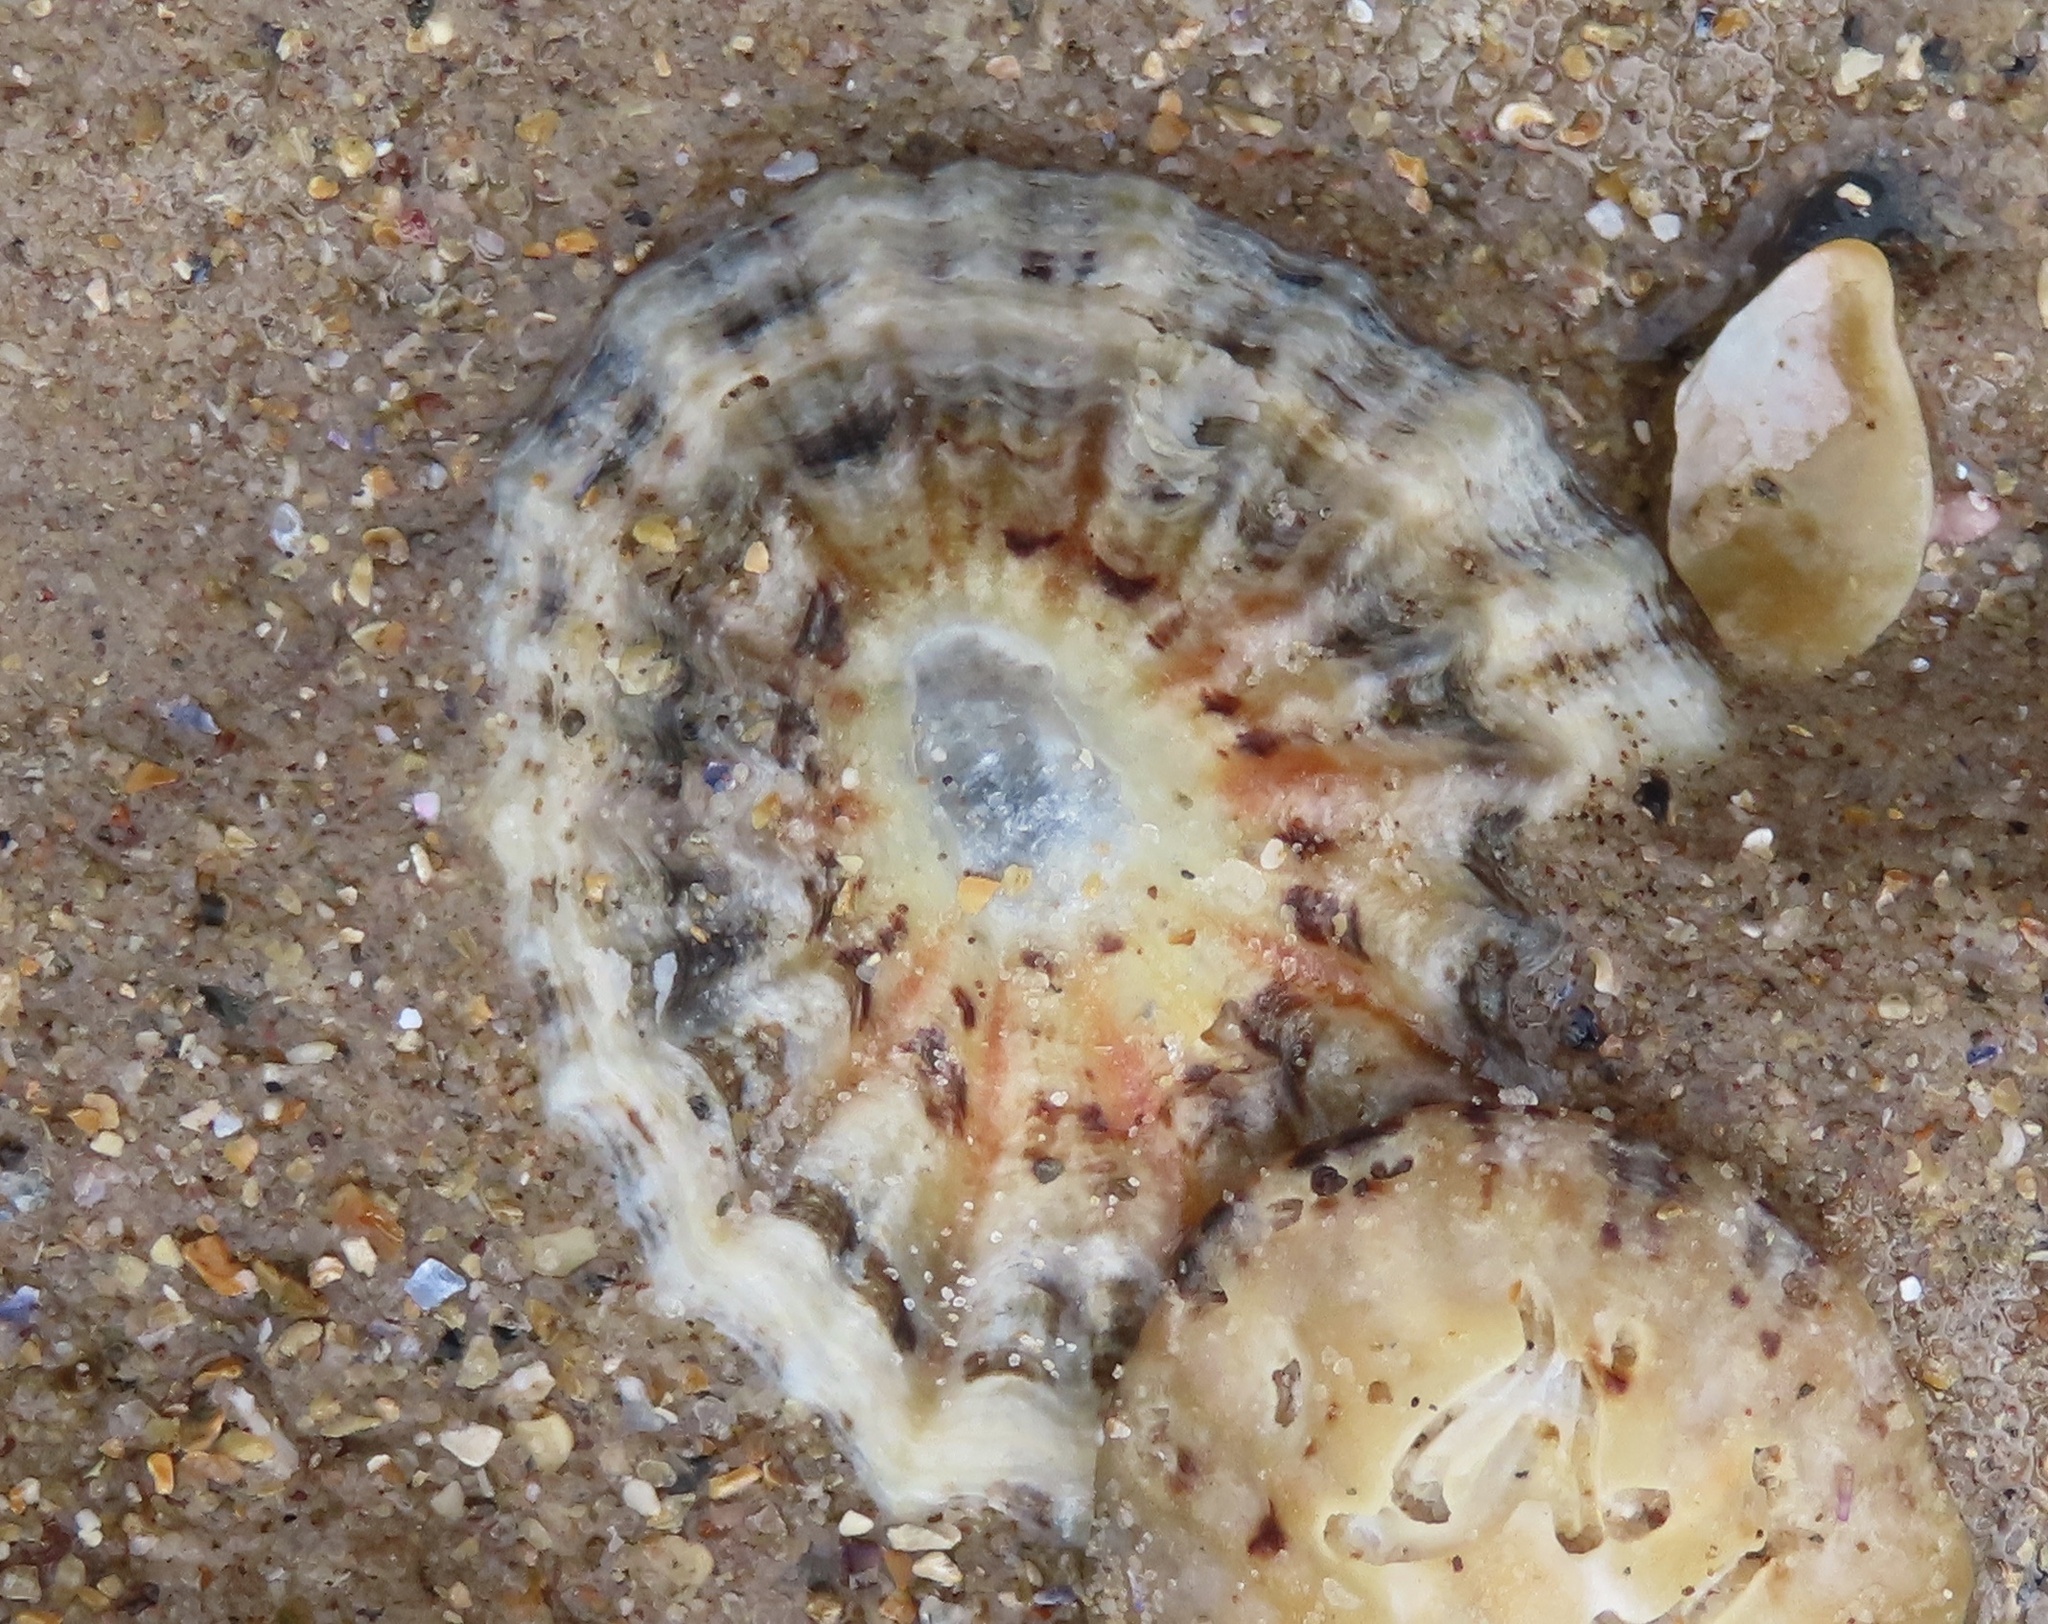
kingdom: Animalia
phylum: Mollusca
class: Gastropoda
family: Patellidae
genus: Patella
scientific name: Patella
